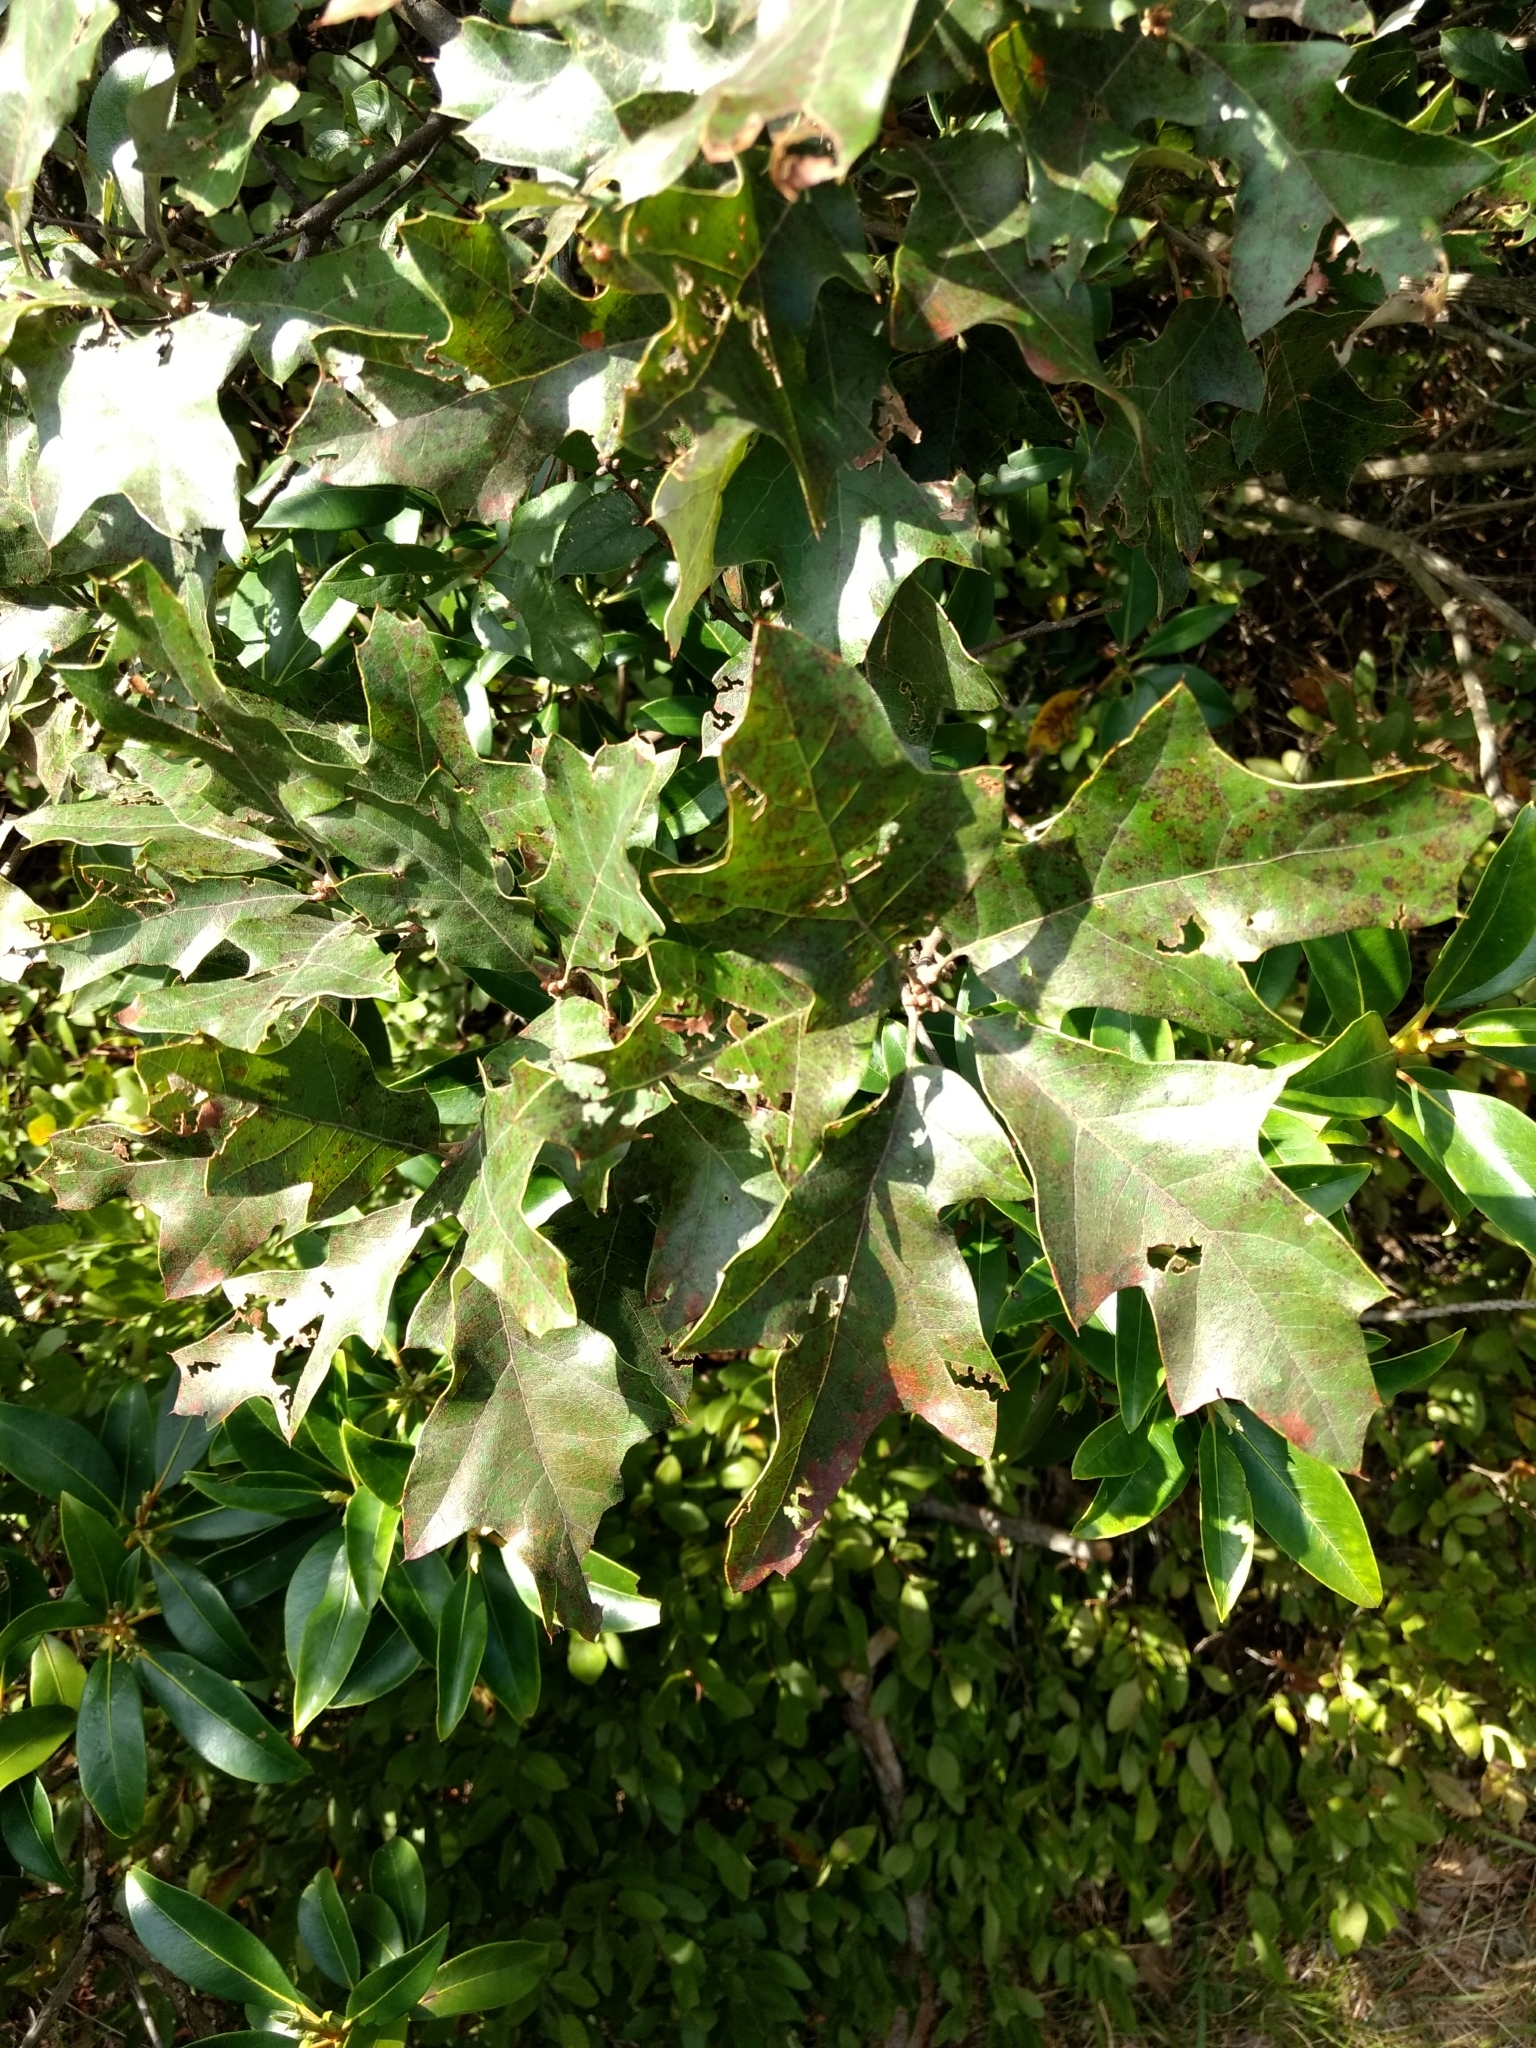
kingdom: Plantae
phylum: Tracheophyta
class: Magnoliopsida
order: Fagales
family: Fagaceae
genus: Quercus
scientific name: Quercus ilicifolia
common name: Bear oak
